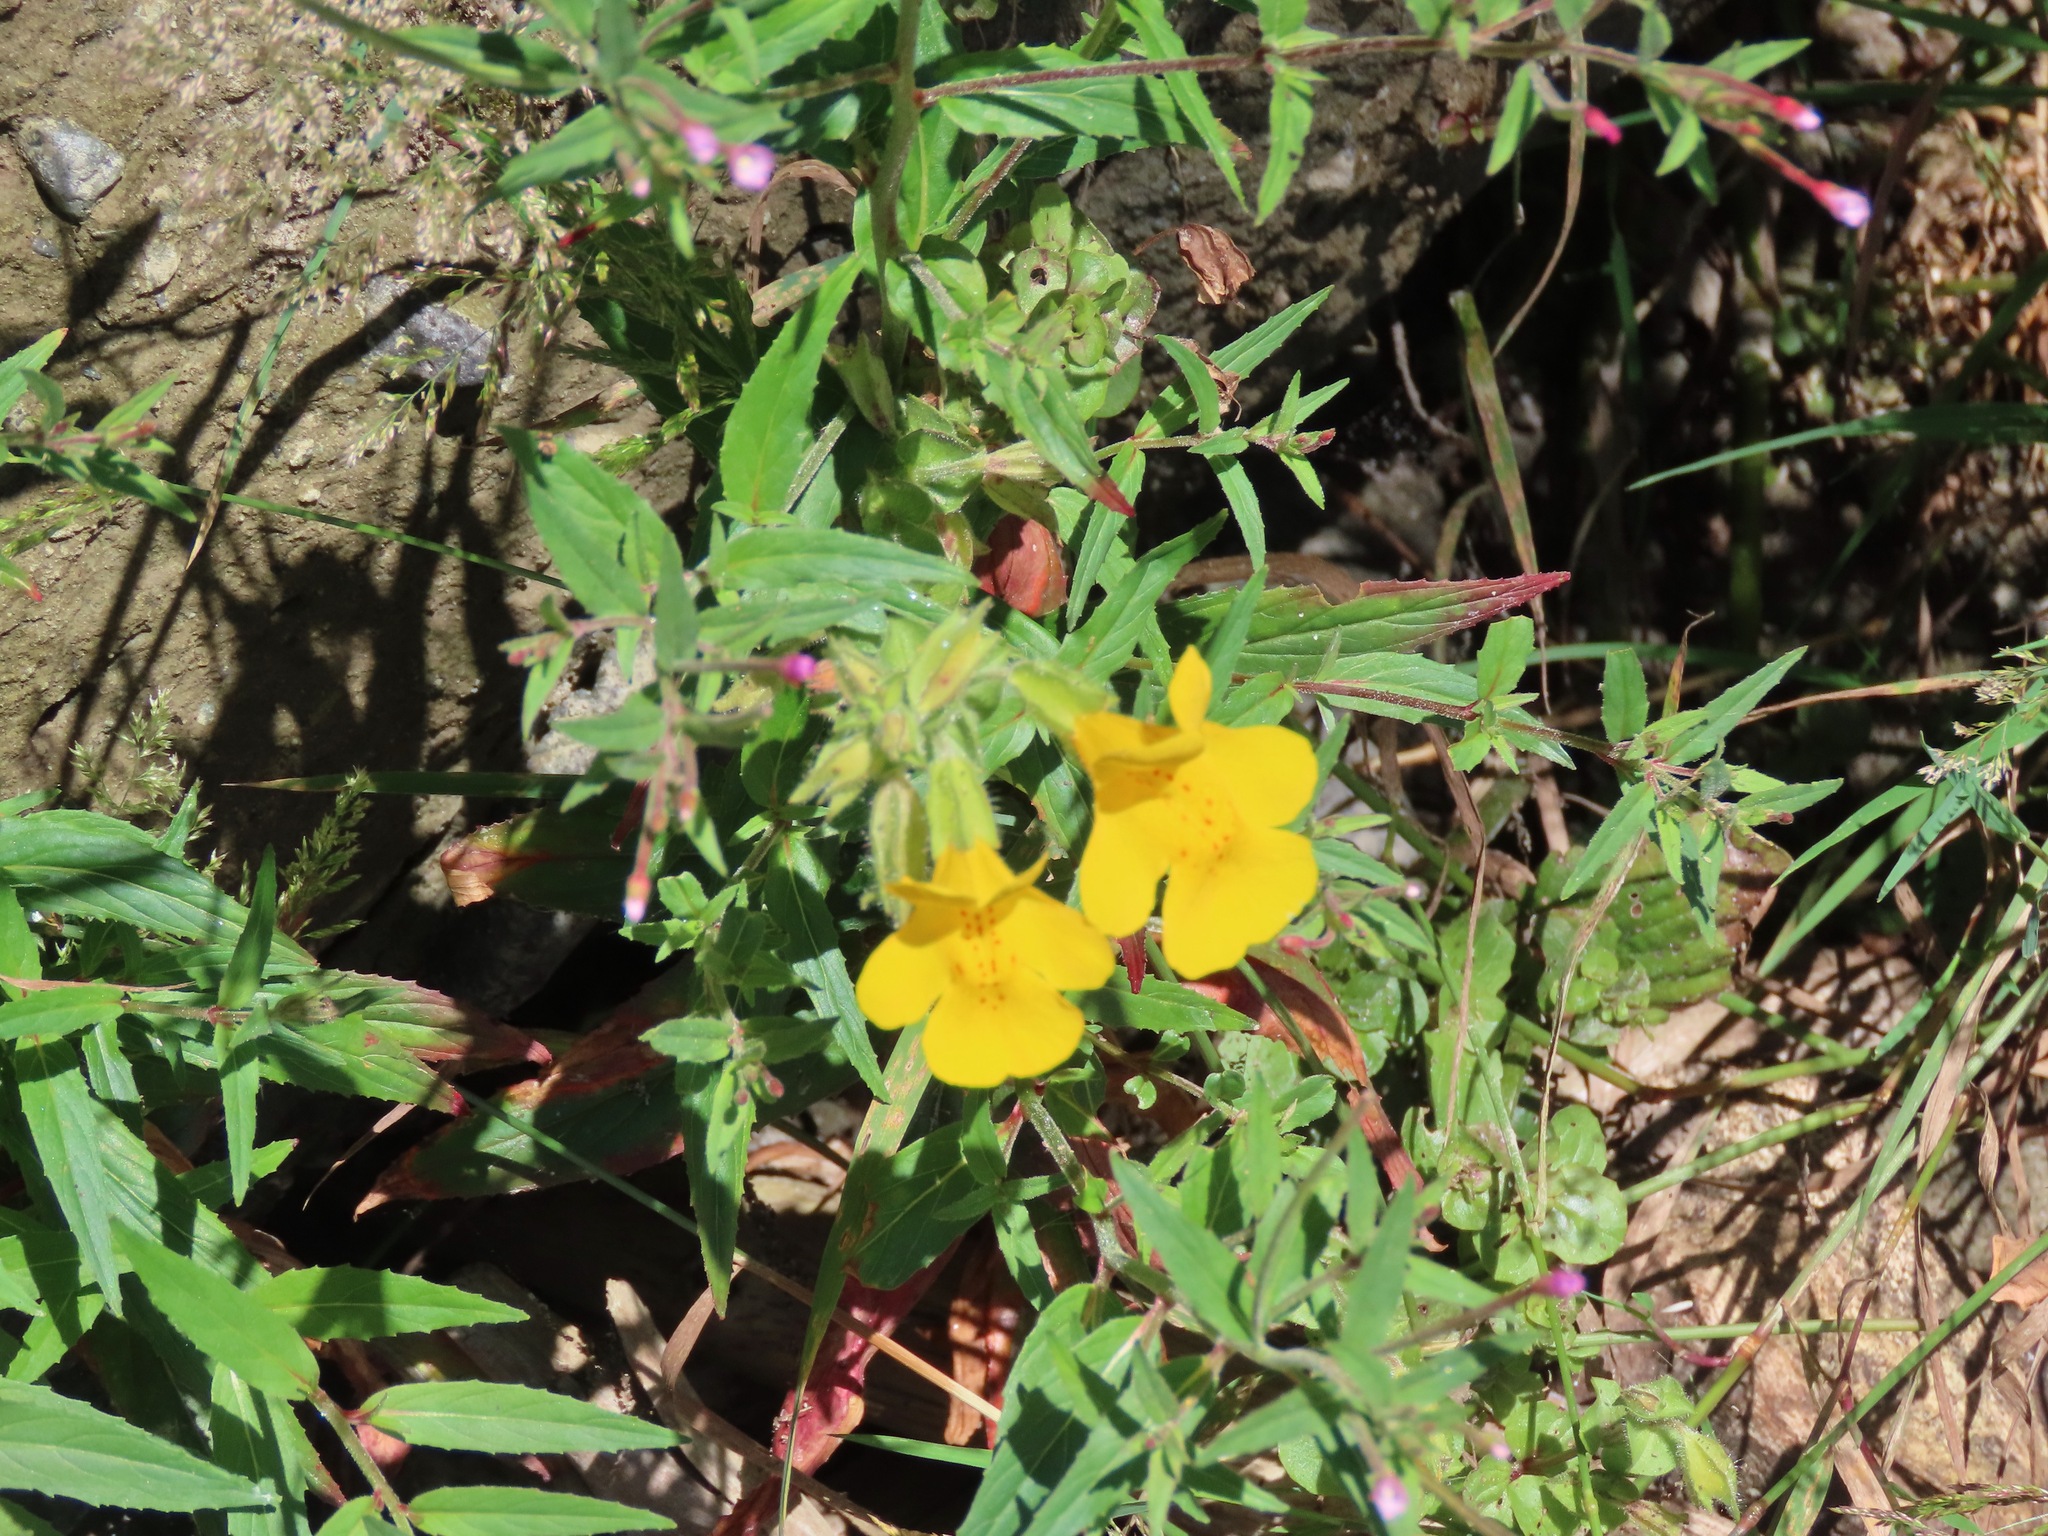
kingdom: Plantae
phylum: Tracheophyta
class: Magnoliopsida
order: Lamiales
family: Phrymaceae
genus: Erythranthe
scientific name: Erythranthe guttata
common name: Monkeyflower
